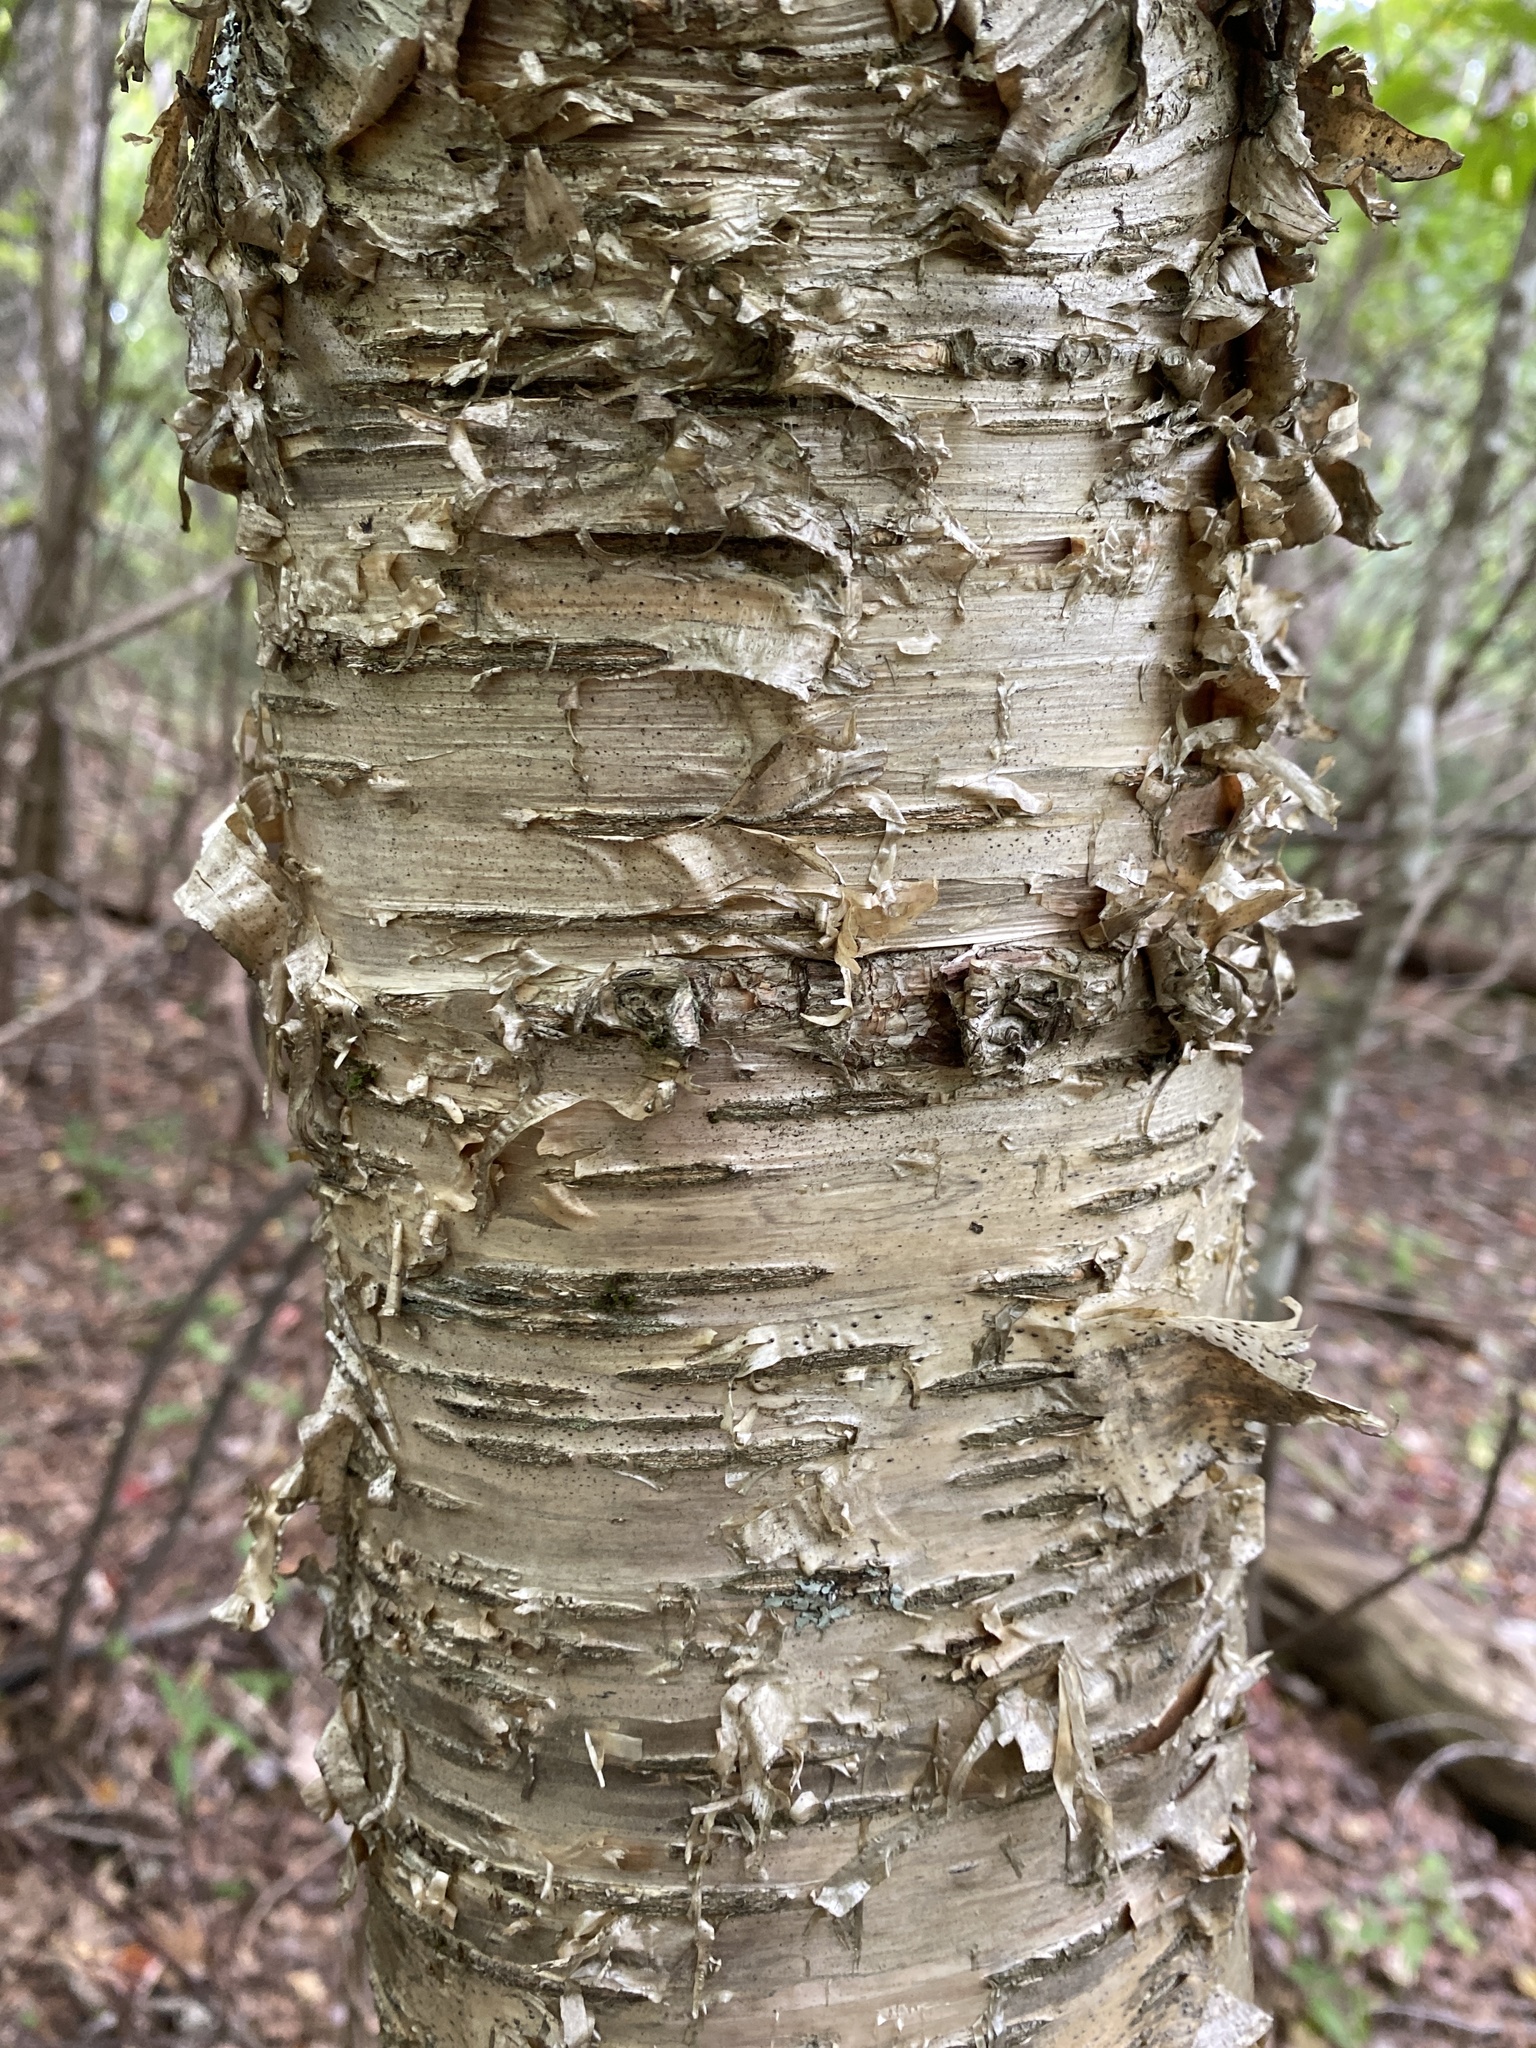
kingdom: Plantae
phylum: Tracheophyta
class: Magnoliopsida
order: Fagales
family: Betulaceae
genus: Betula
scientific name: Betula alleghaniensis
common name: Yellow birch
